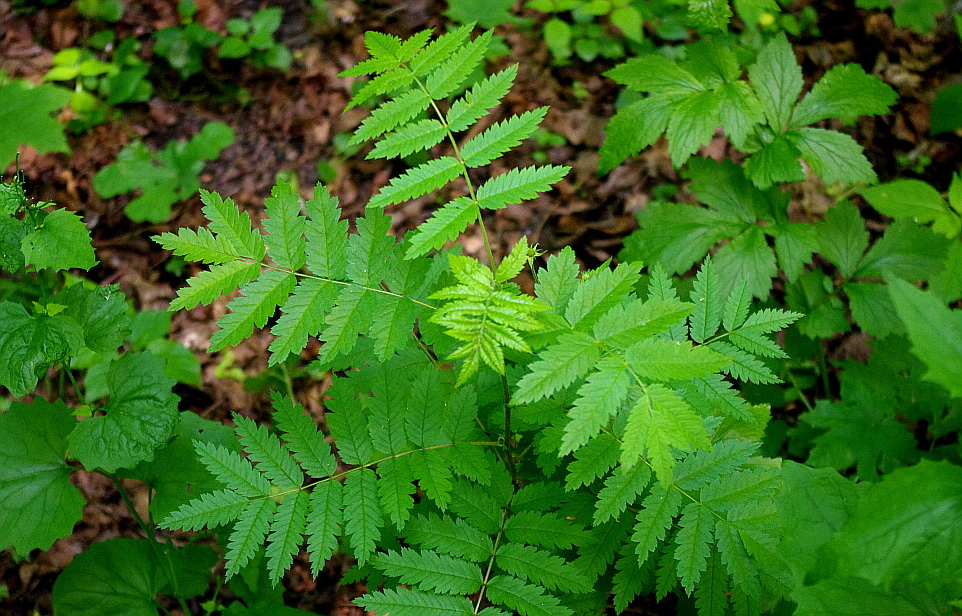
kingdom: Plantae
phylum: Tracheophyta
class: Magnoliopsida
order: Rosales
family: Rosaceae
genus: Sorbus
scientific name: Sorbus aucuparia
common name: Rowan
